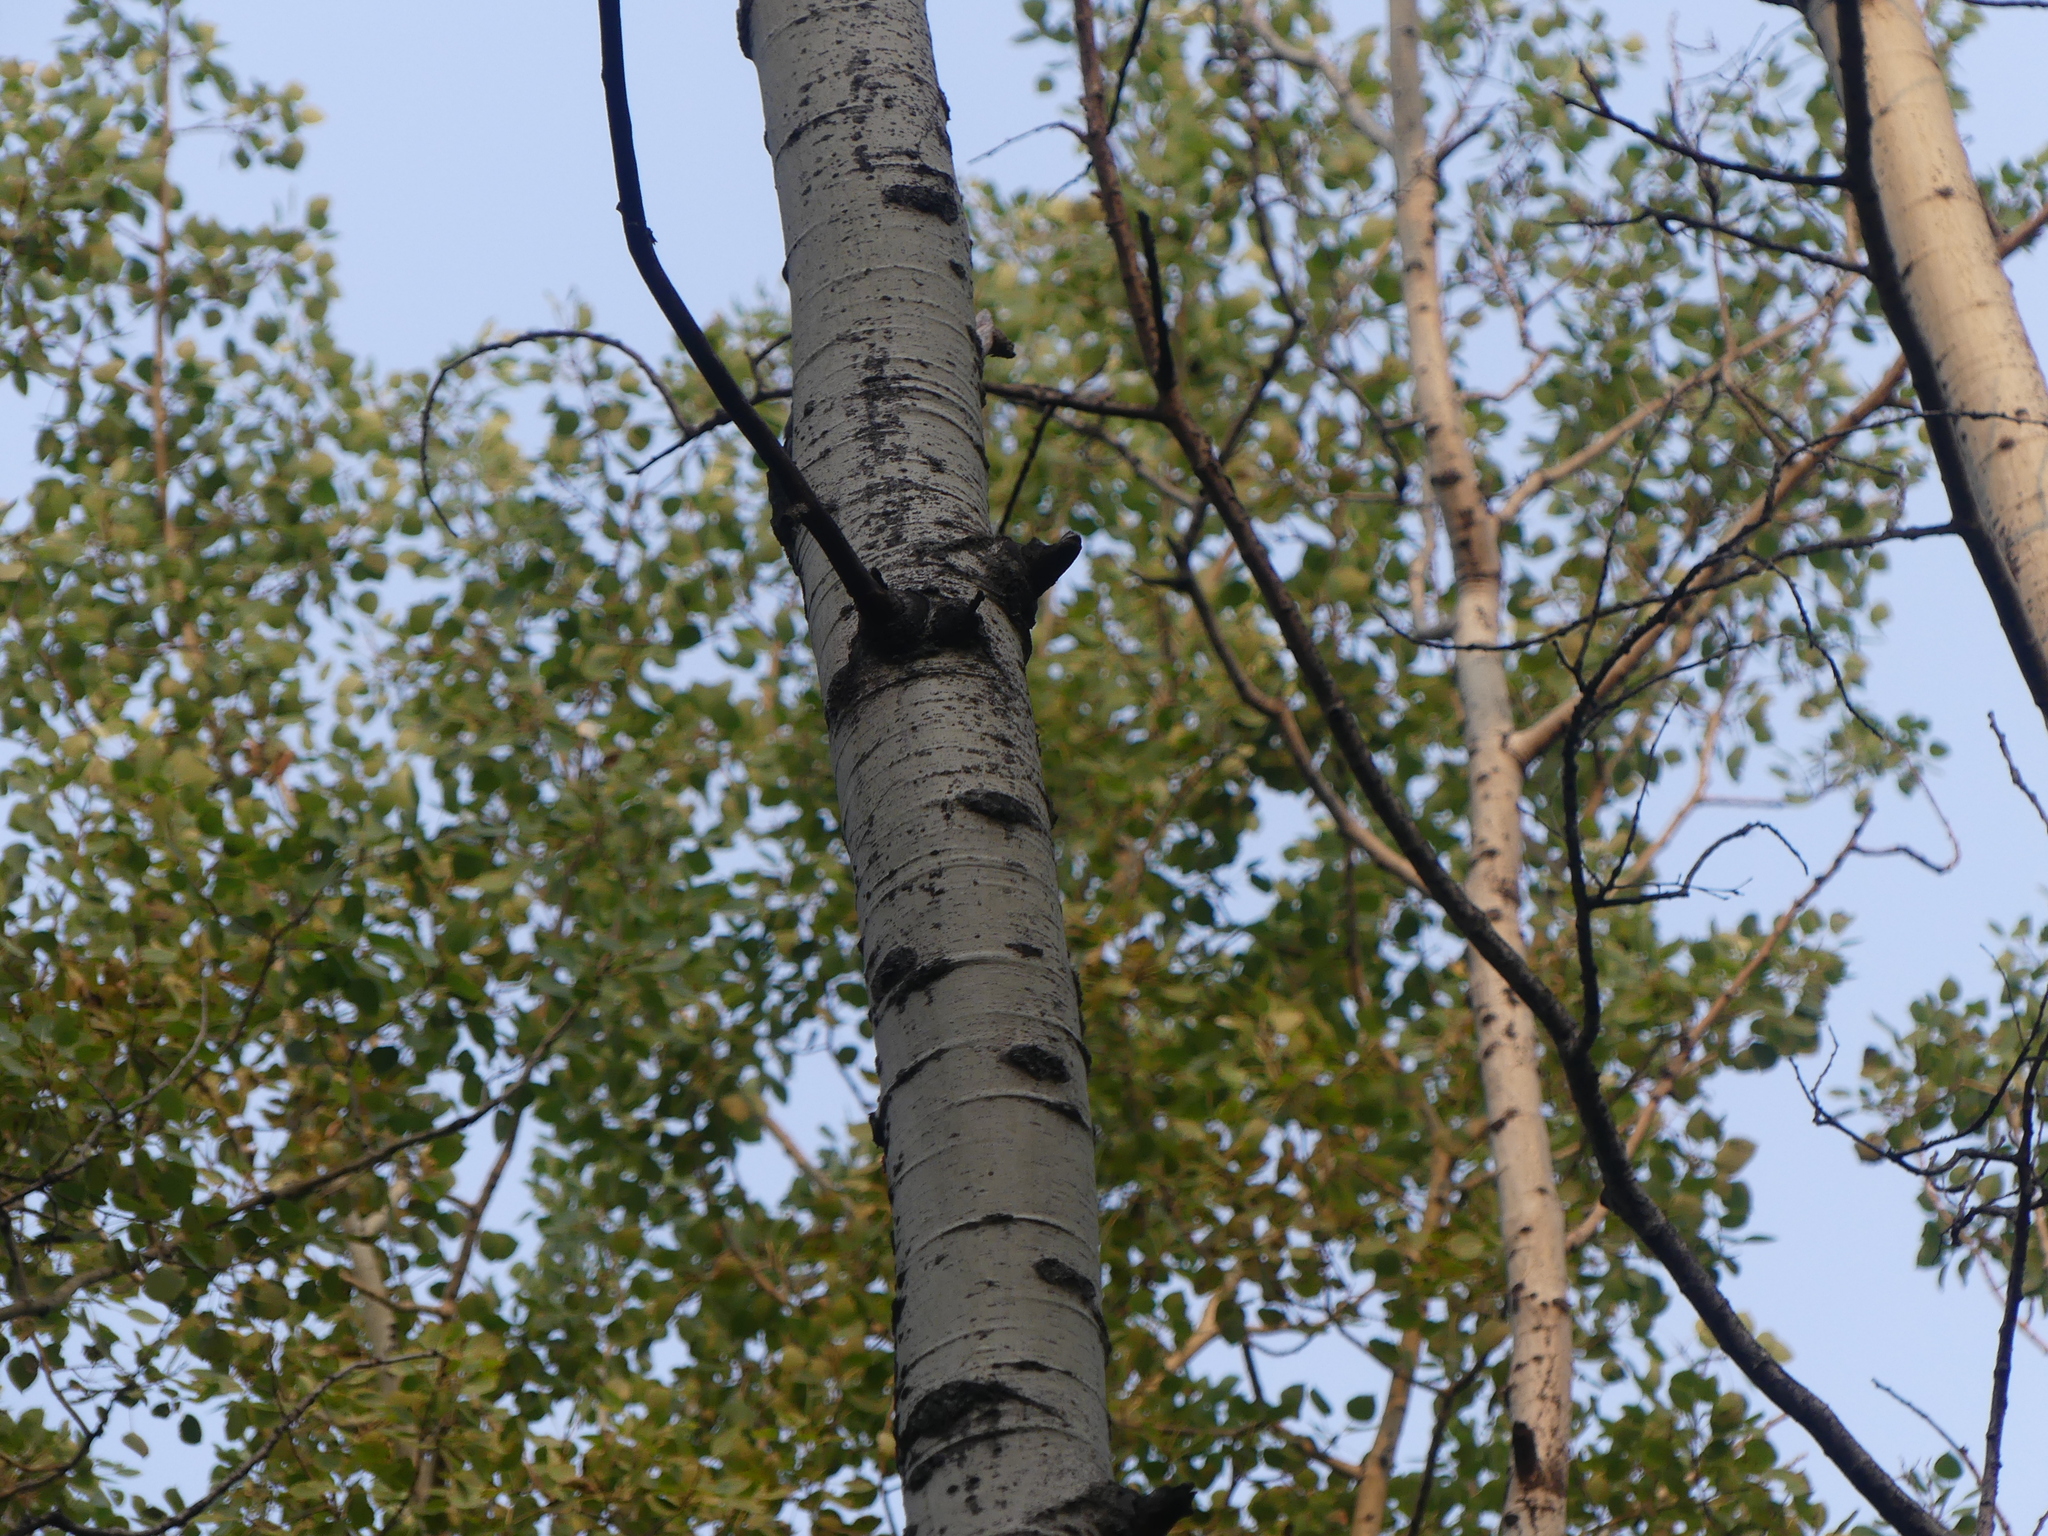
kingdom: Plantae
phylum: Tracheophyta
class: Magnoliopsida
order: Malpighiales
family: Salicaceae
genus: Populus
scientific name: Populus tremuloides
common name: Quaking aspen
